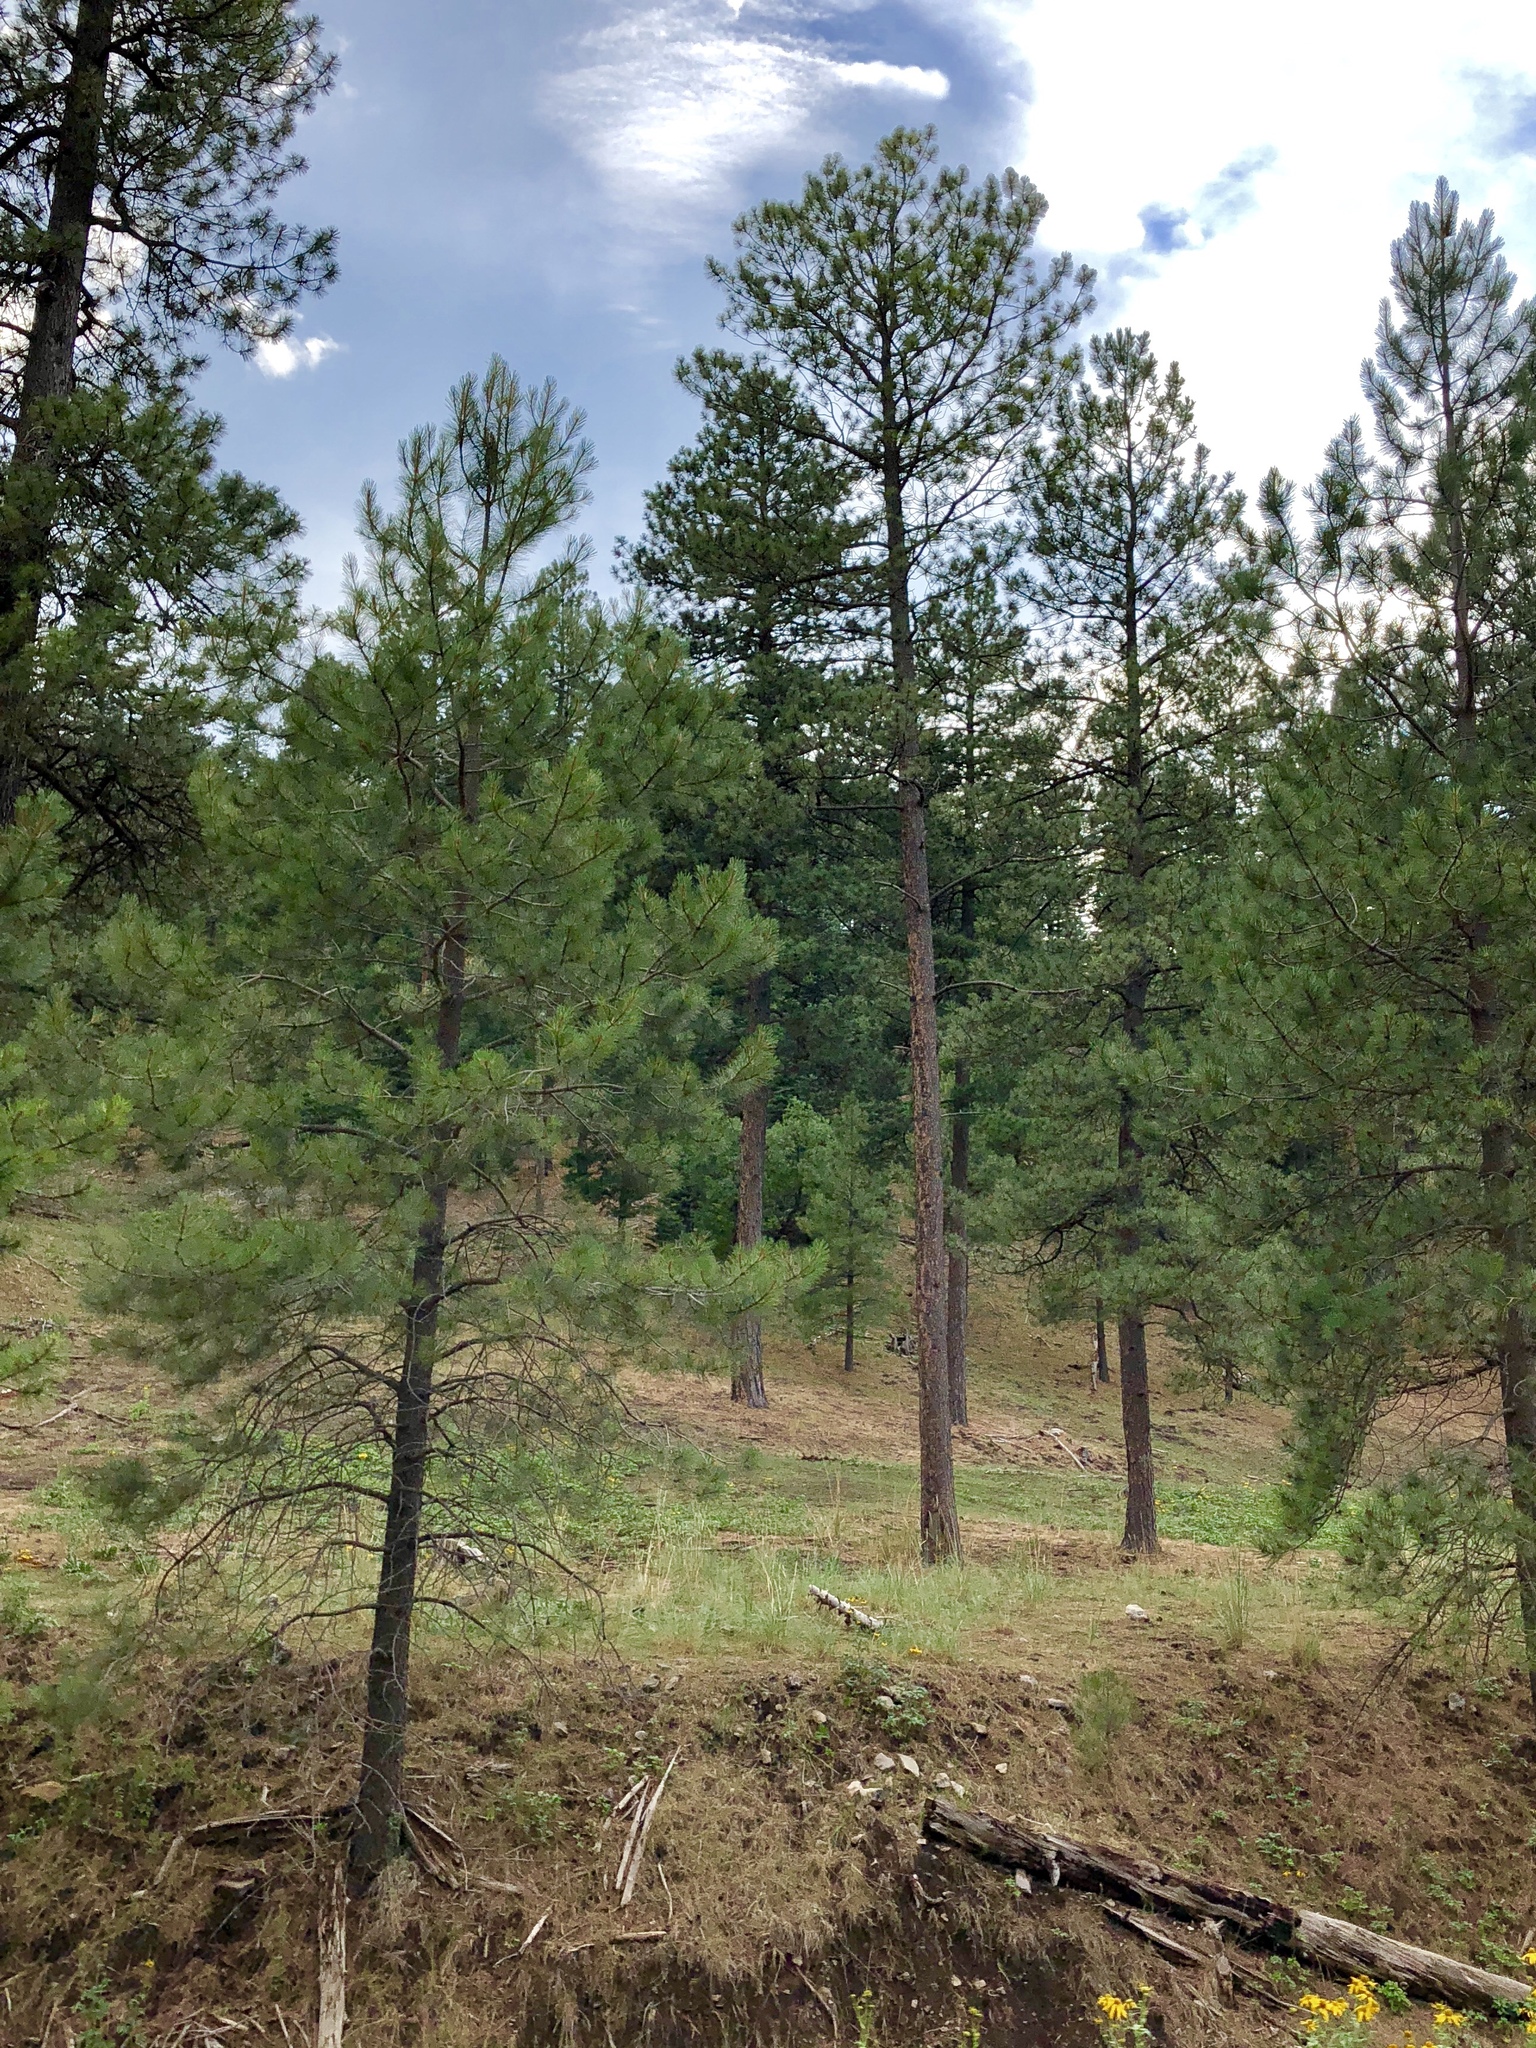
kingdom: Plantae
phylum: Tracheophyta
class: Pinopsida
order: Pinales
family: Pinaceae
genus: Pinus
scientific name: Pinus ponderosa
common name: Western yellow-pine
